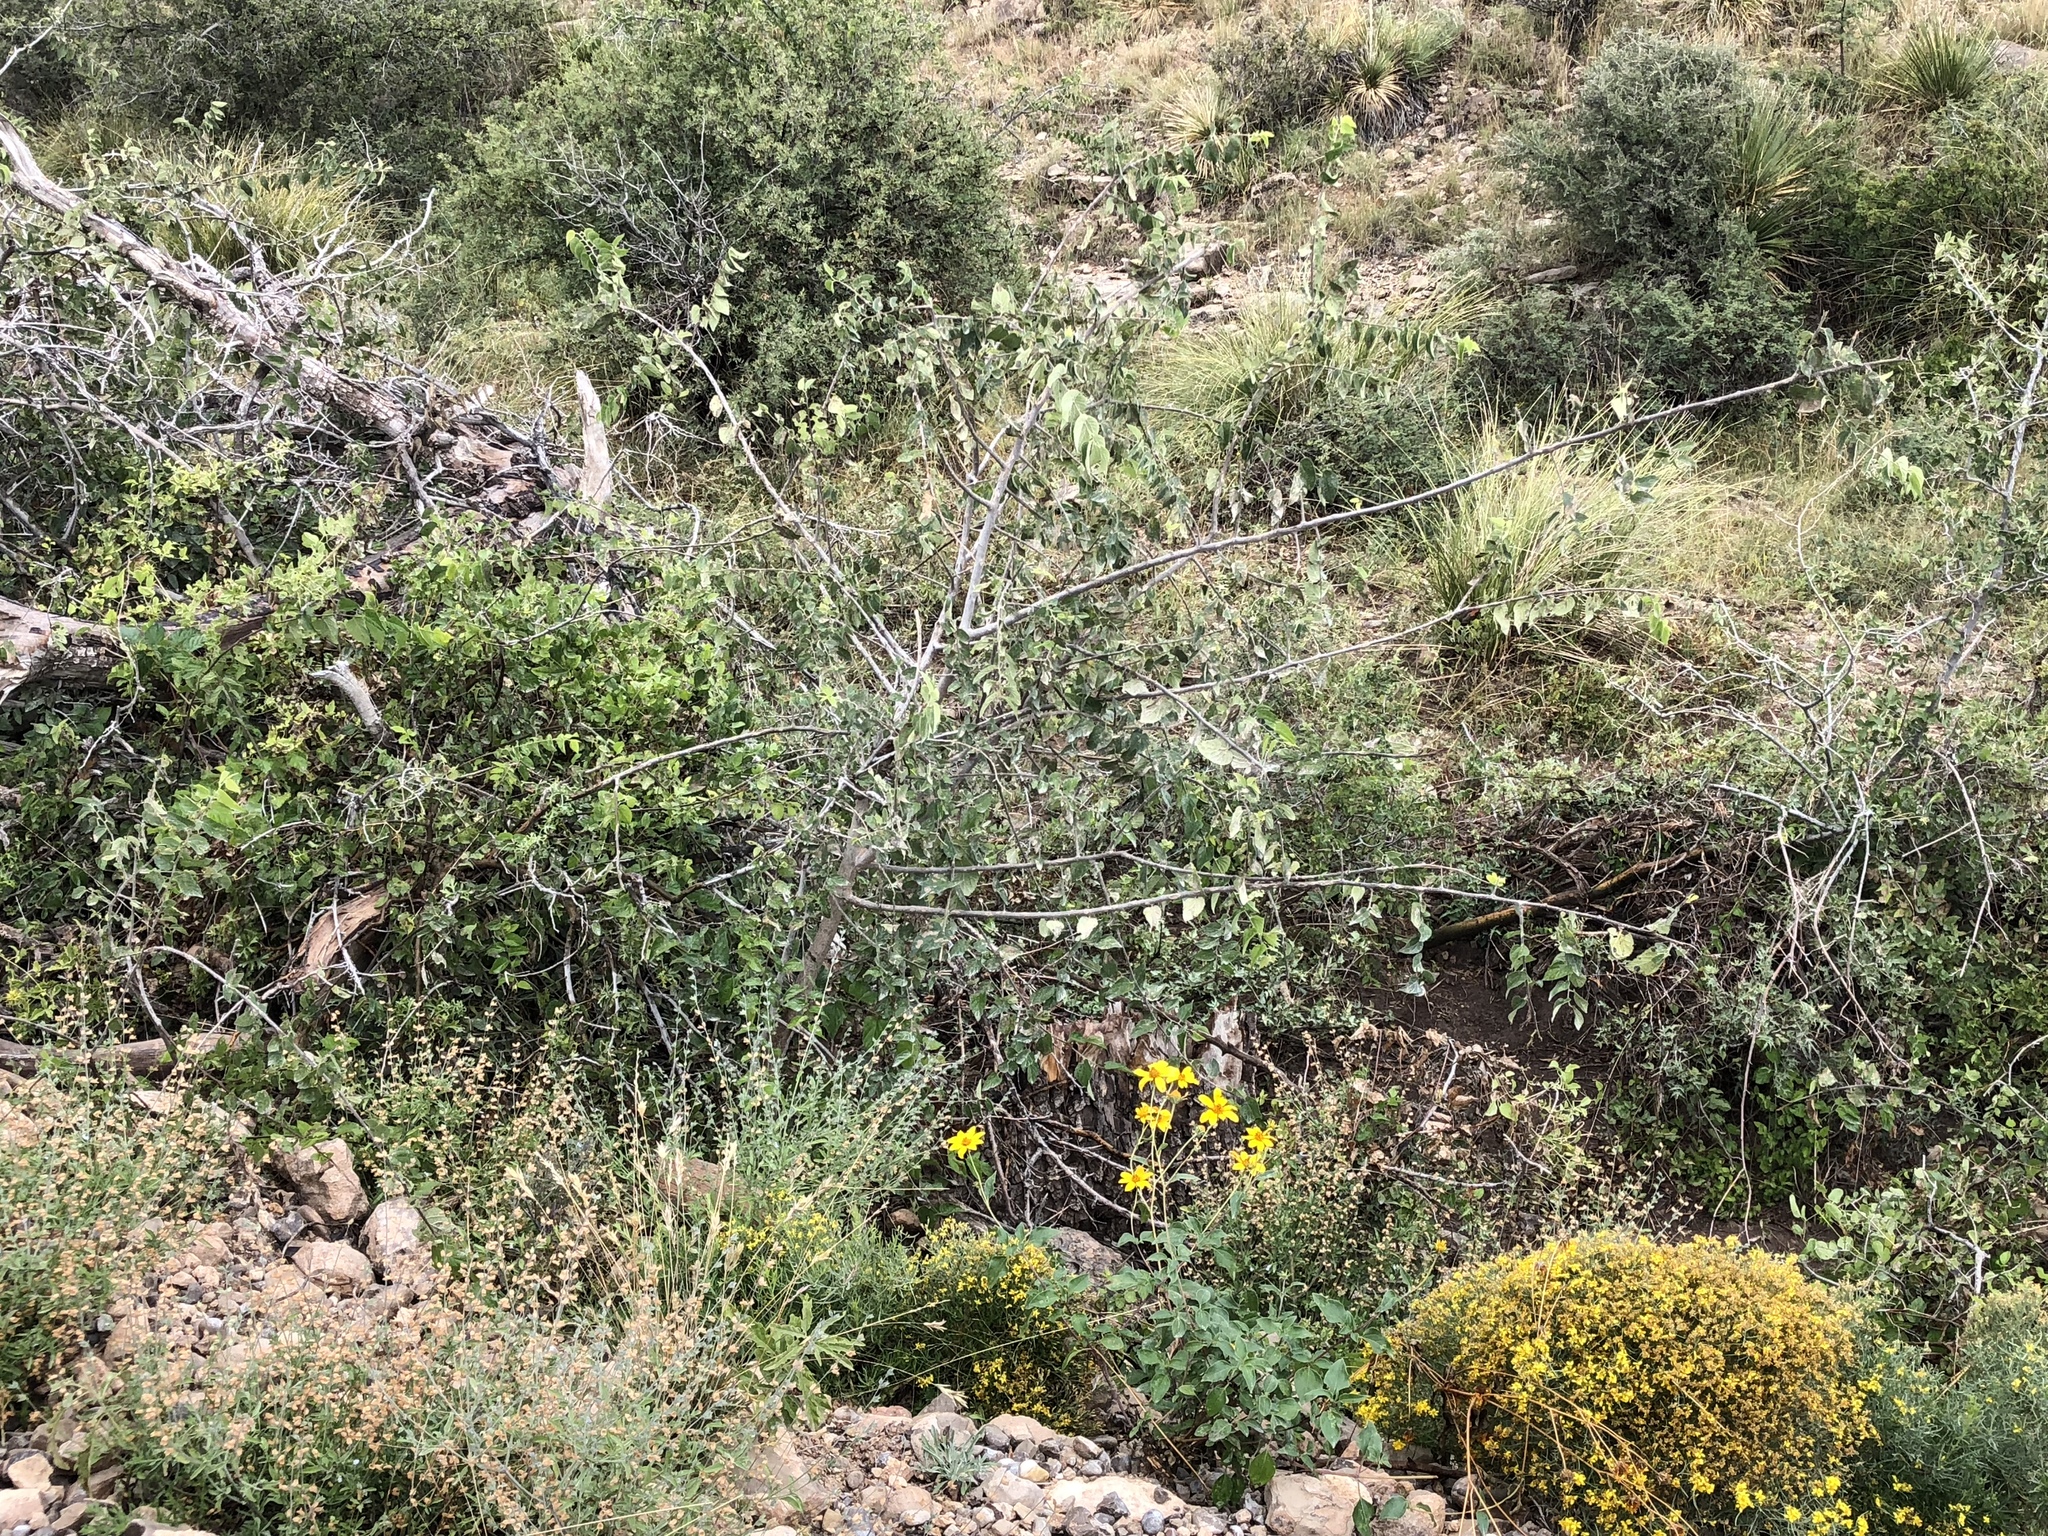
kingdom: Plantae
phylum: Tracheophyta
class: Magnoliopsida
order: Rosales
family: Cannabaceae
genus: Celtis
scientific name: Celtis reticulata
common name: Netleaf hackberry
